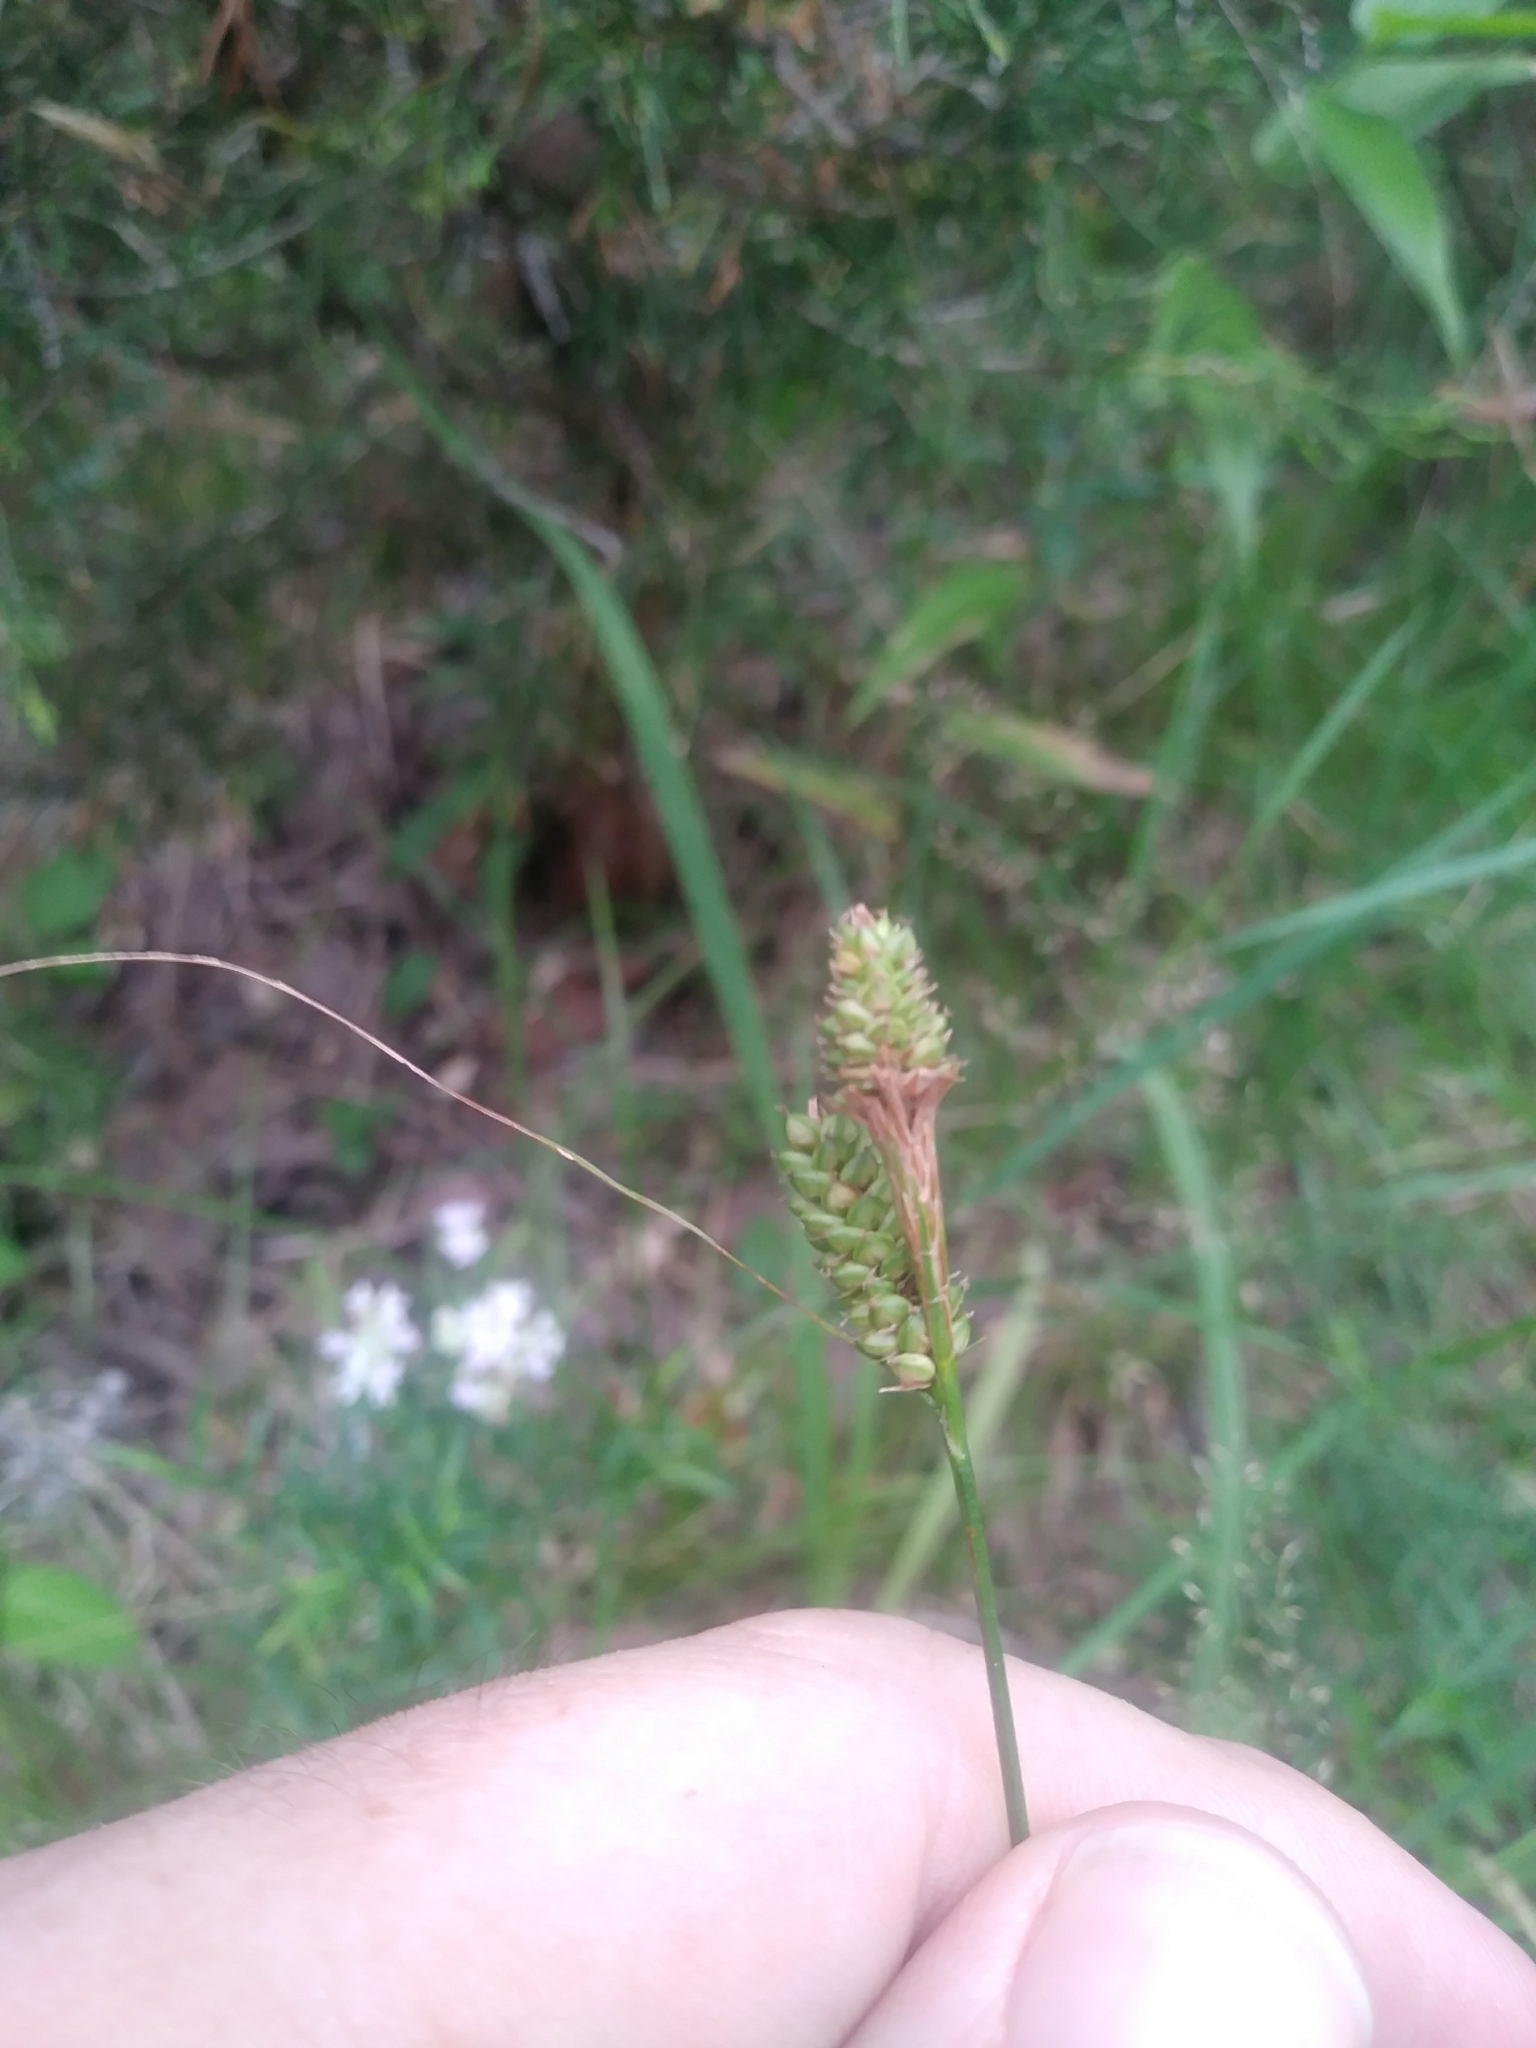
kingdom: Plantae
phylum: Tracheophyta
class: Liliopsida
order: Poales
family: Cyperaceae
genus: Carex
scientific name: Carex hirsutella
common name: Fuzzy wuzzy sedge
